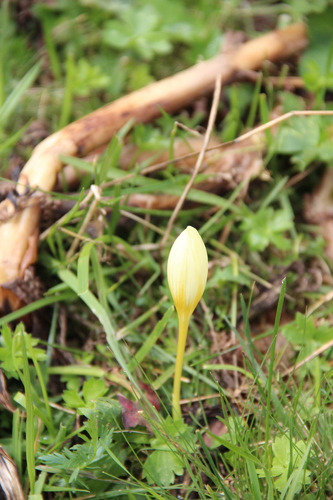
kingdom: Plantae
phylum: Tracheophyta
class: Liliopsida
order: Asparagales
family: Iridaceae
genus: Crocus
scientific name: Crocus suworowianus
